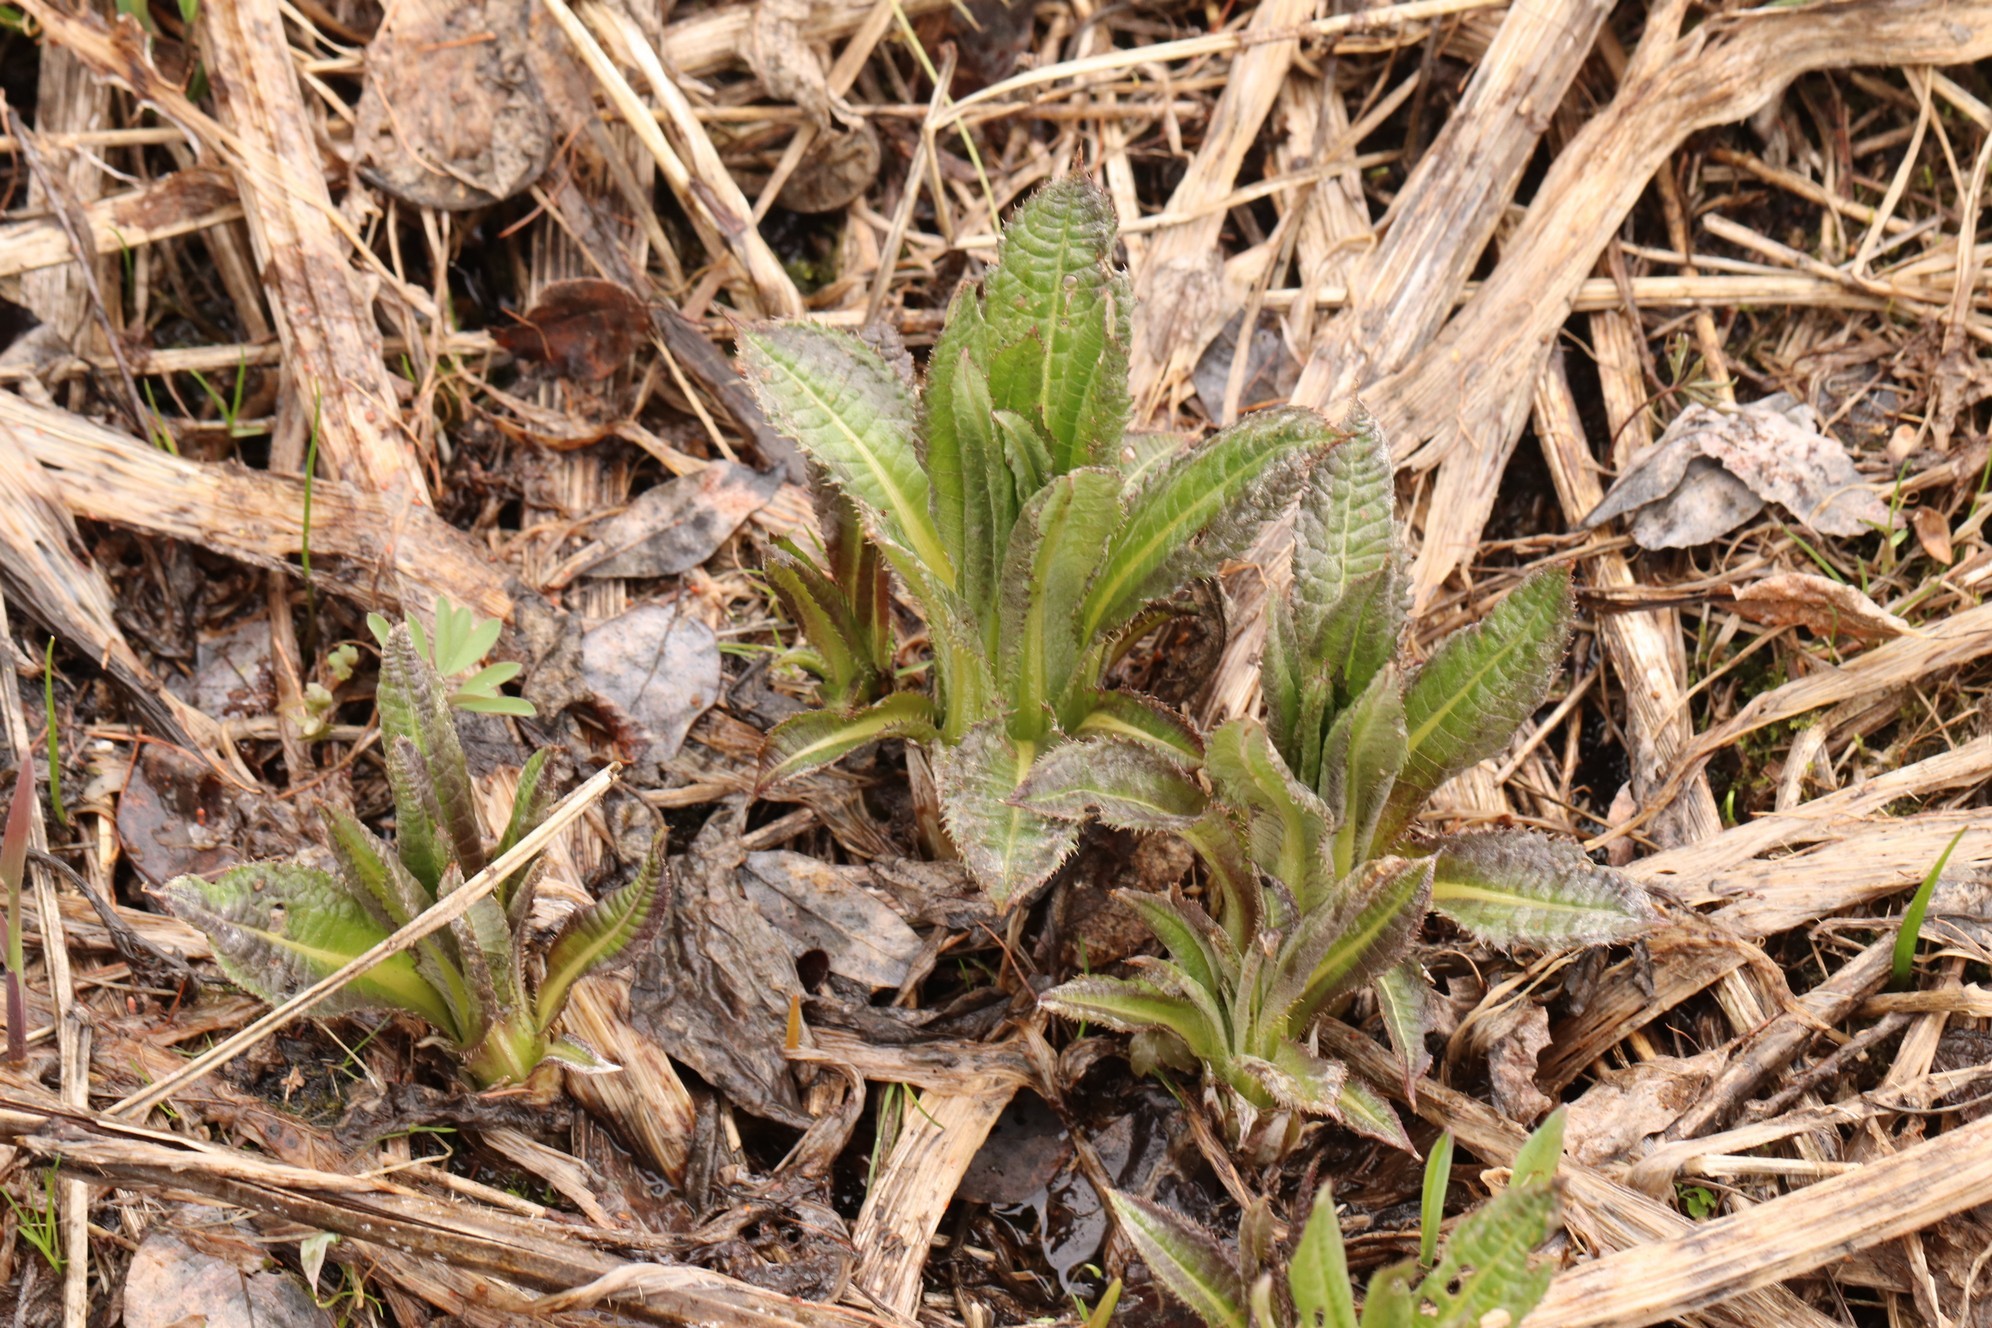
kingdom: Plantae
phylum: Tracheophyta
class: Magnoliopsida
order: Asterales
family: Asteraceae
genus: Alfredia
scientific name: Alfredia cernua
